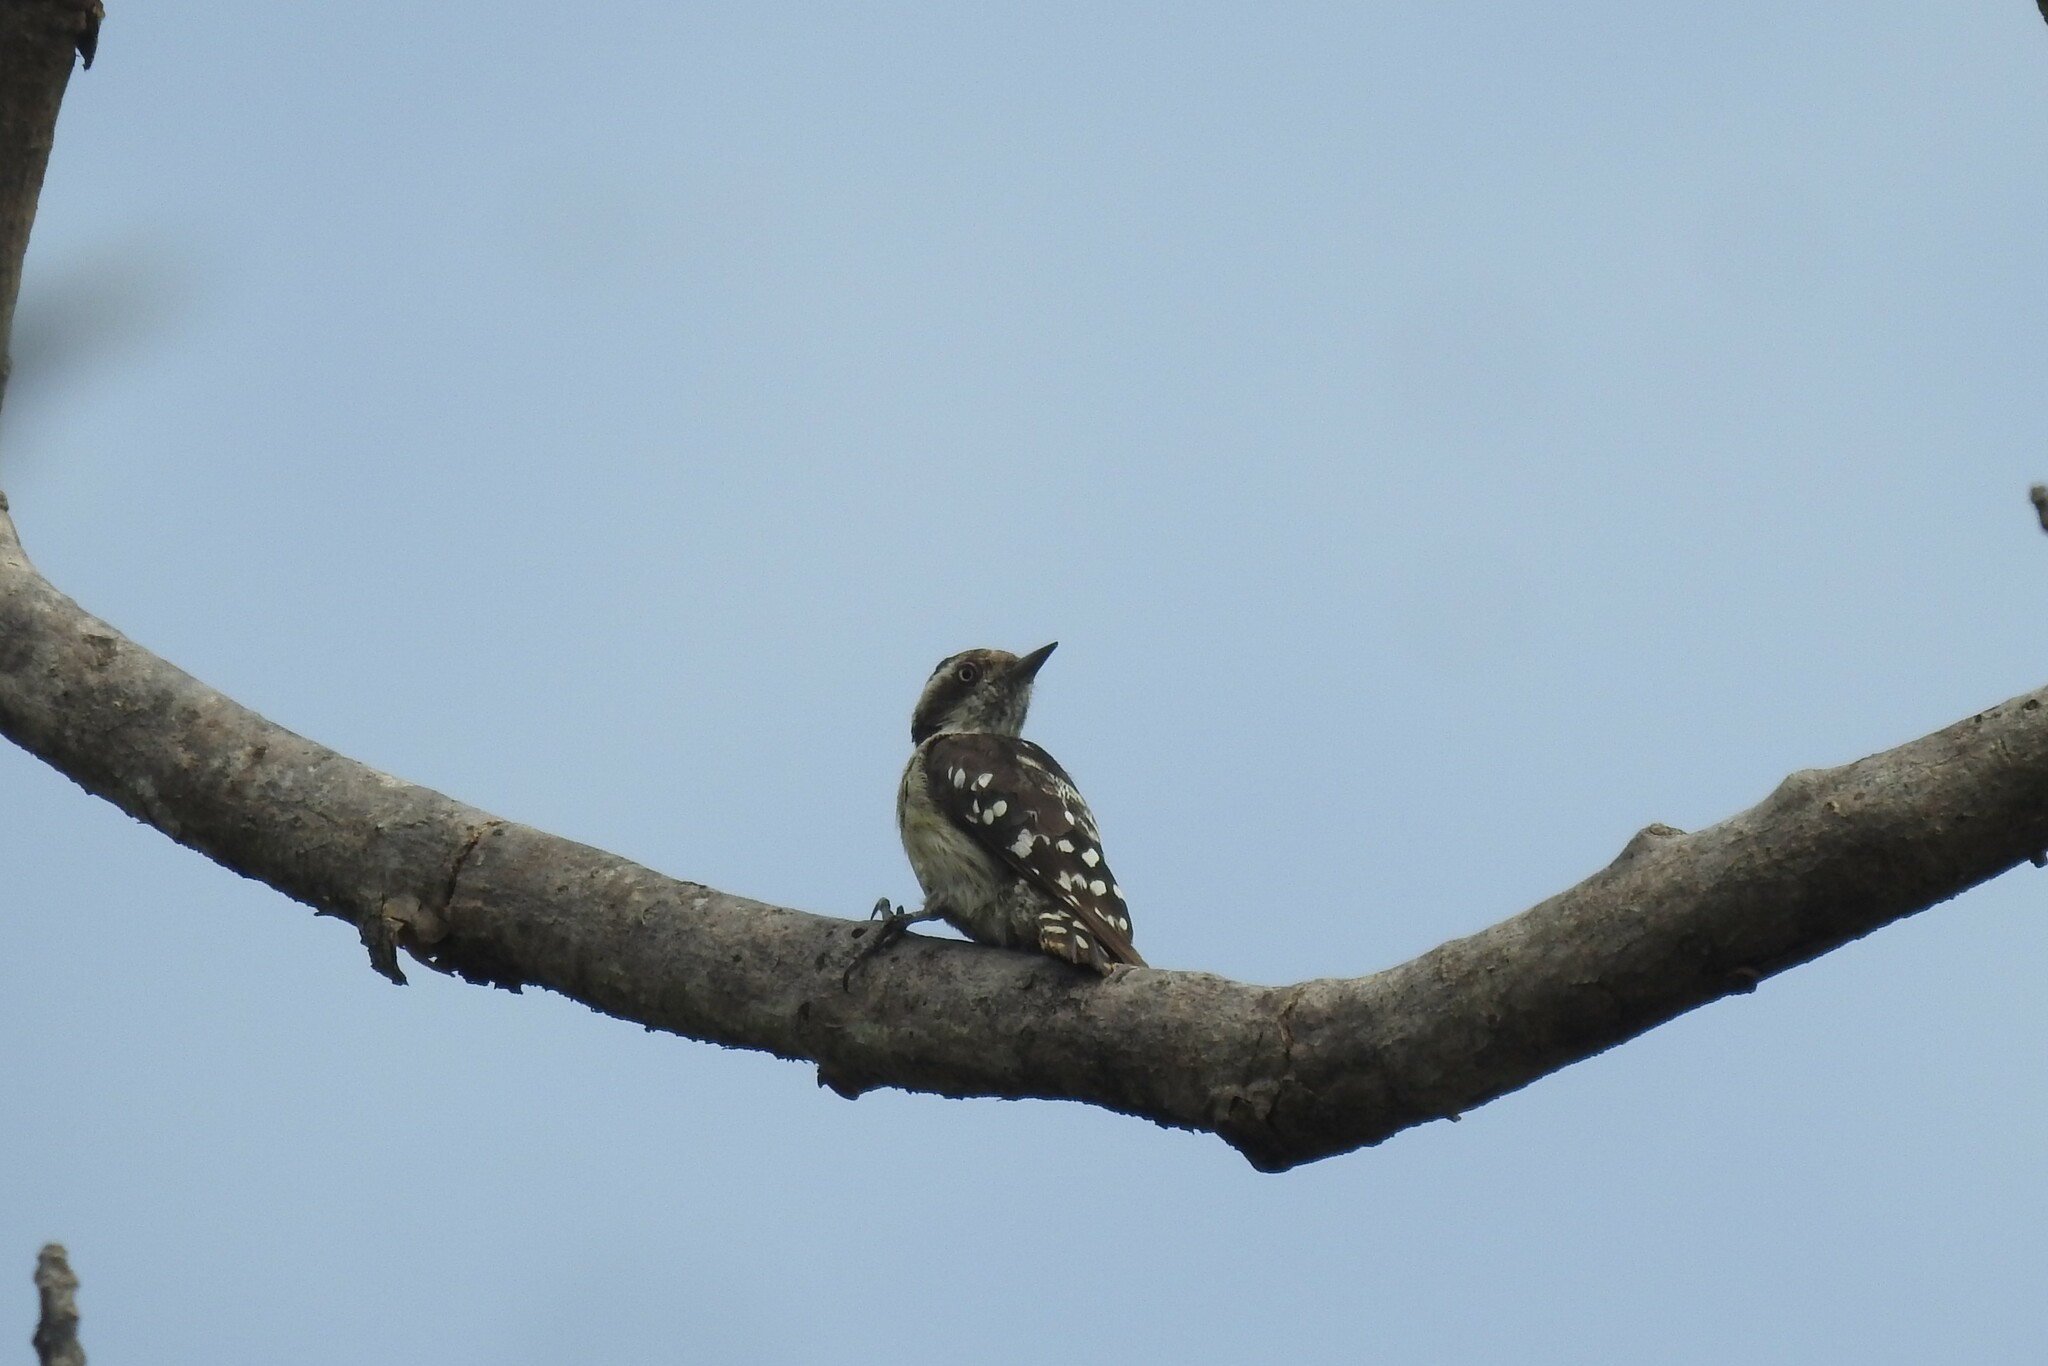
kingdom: Animalia
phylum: Chordata
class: Aves
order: Piciformes
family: Picidae
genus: Yungipicus
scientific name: Yungipicus nanus
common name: Brown-capped pygmy woodpecker
